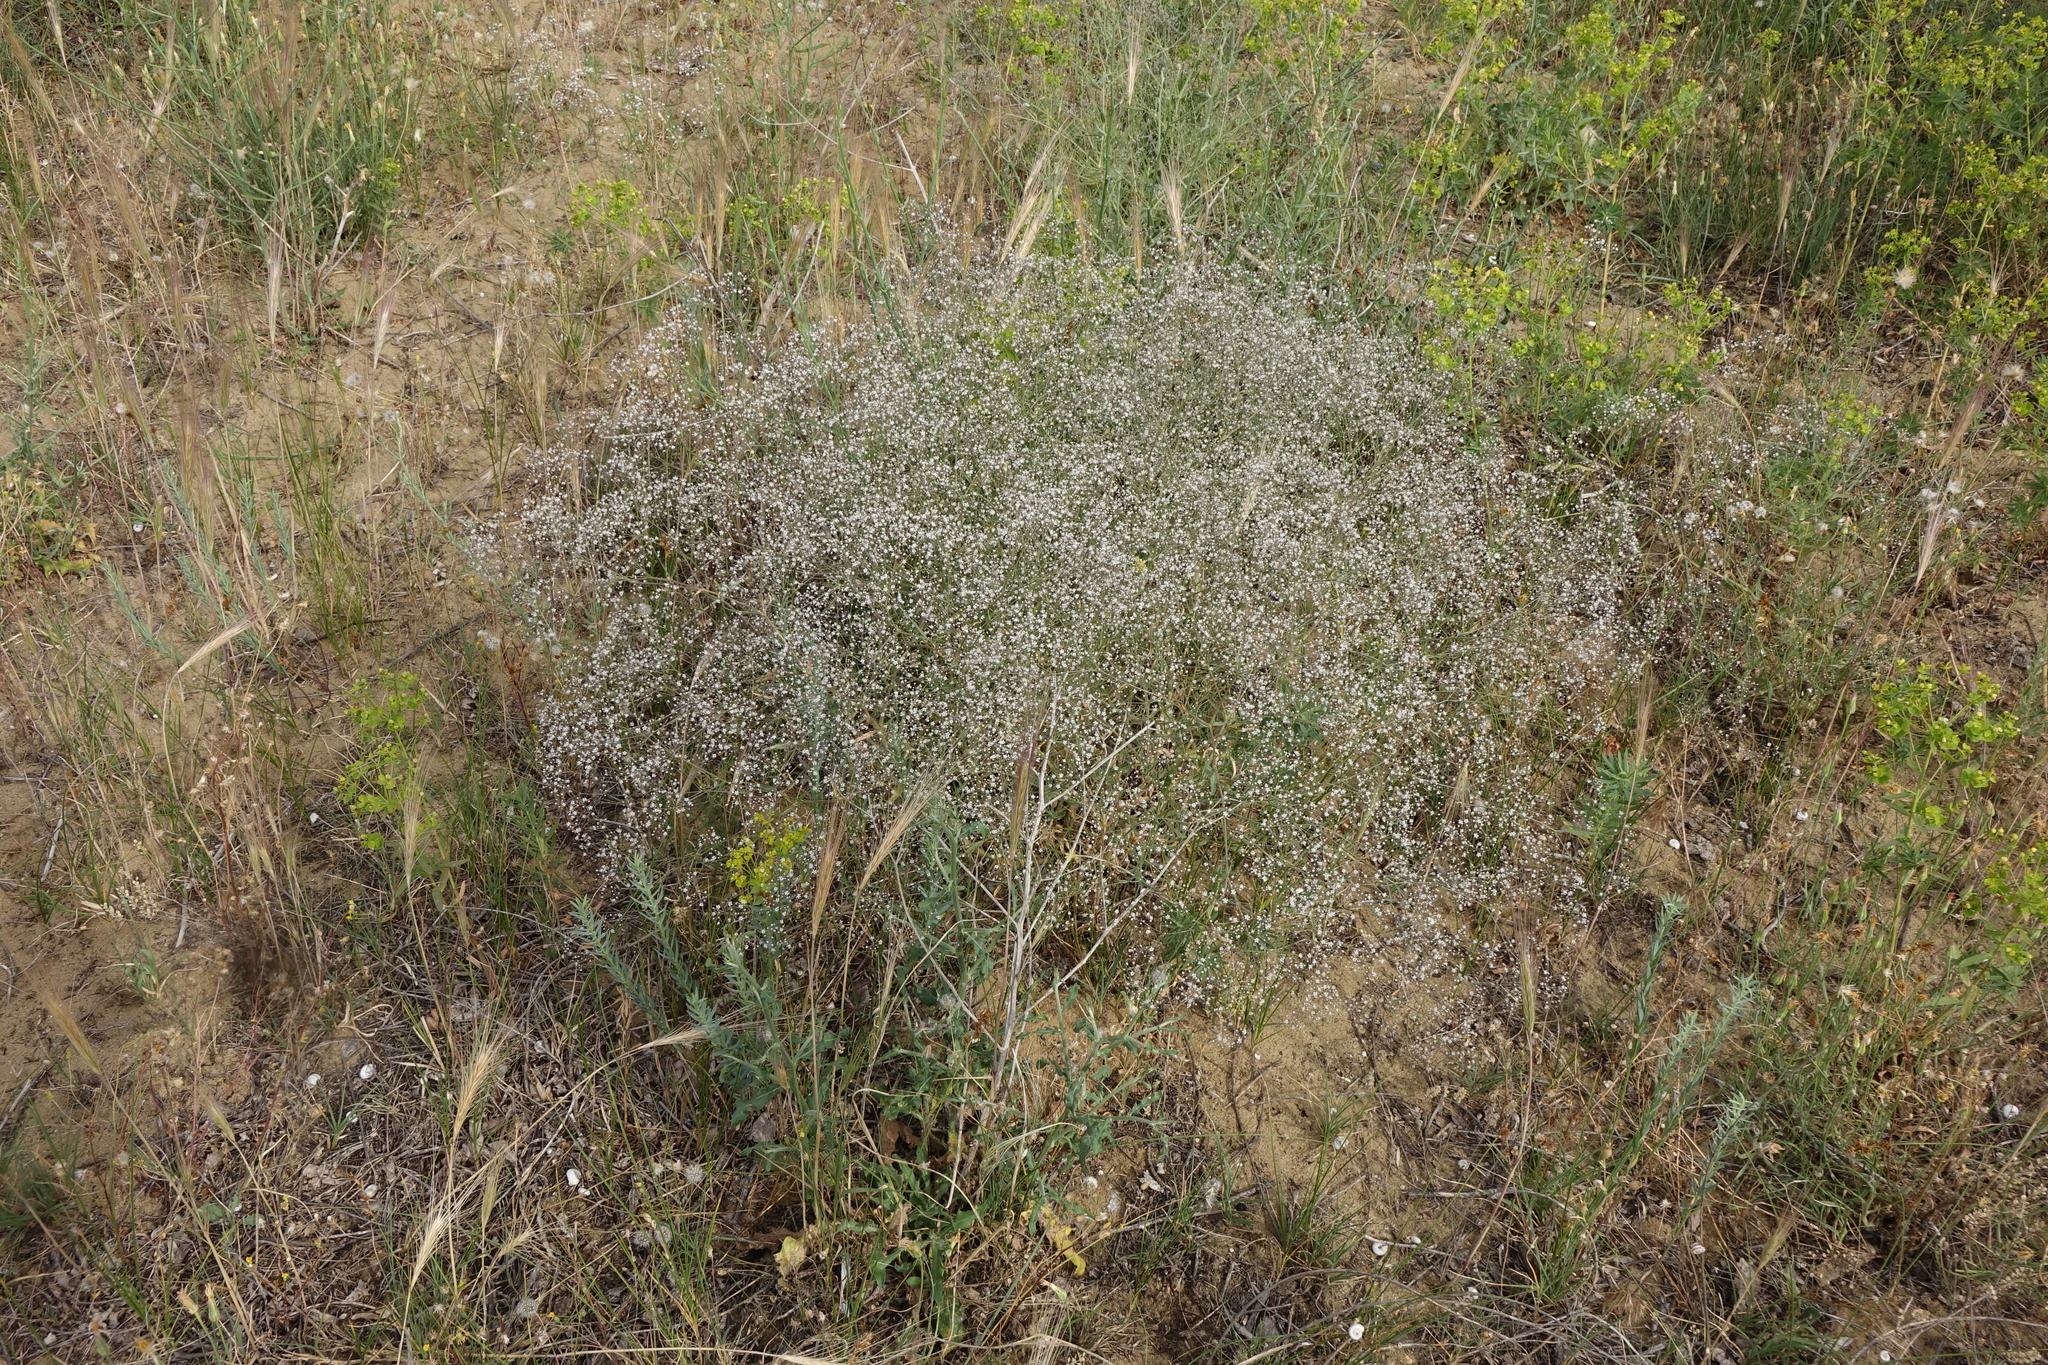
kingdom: Plantae
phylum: Tracheophyta
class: Magnoliopsida
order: Caryophyllales
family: Caryophyllaceae
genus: Gypsophila
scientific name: Gypsophila paniculata
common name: Baby's-breath
